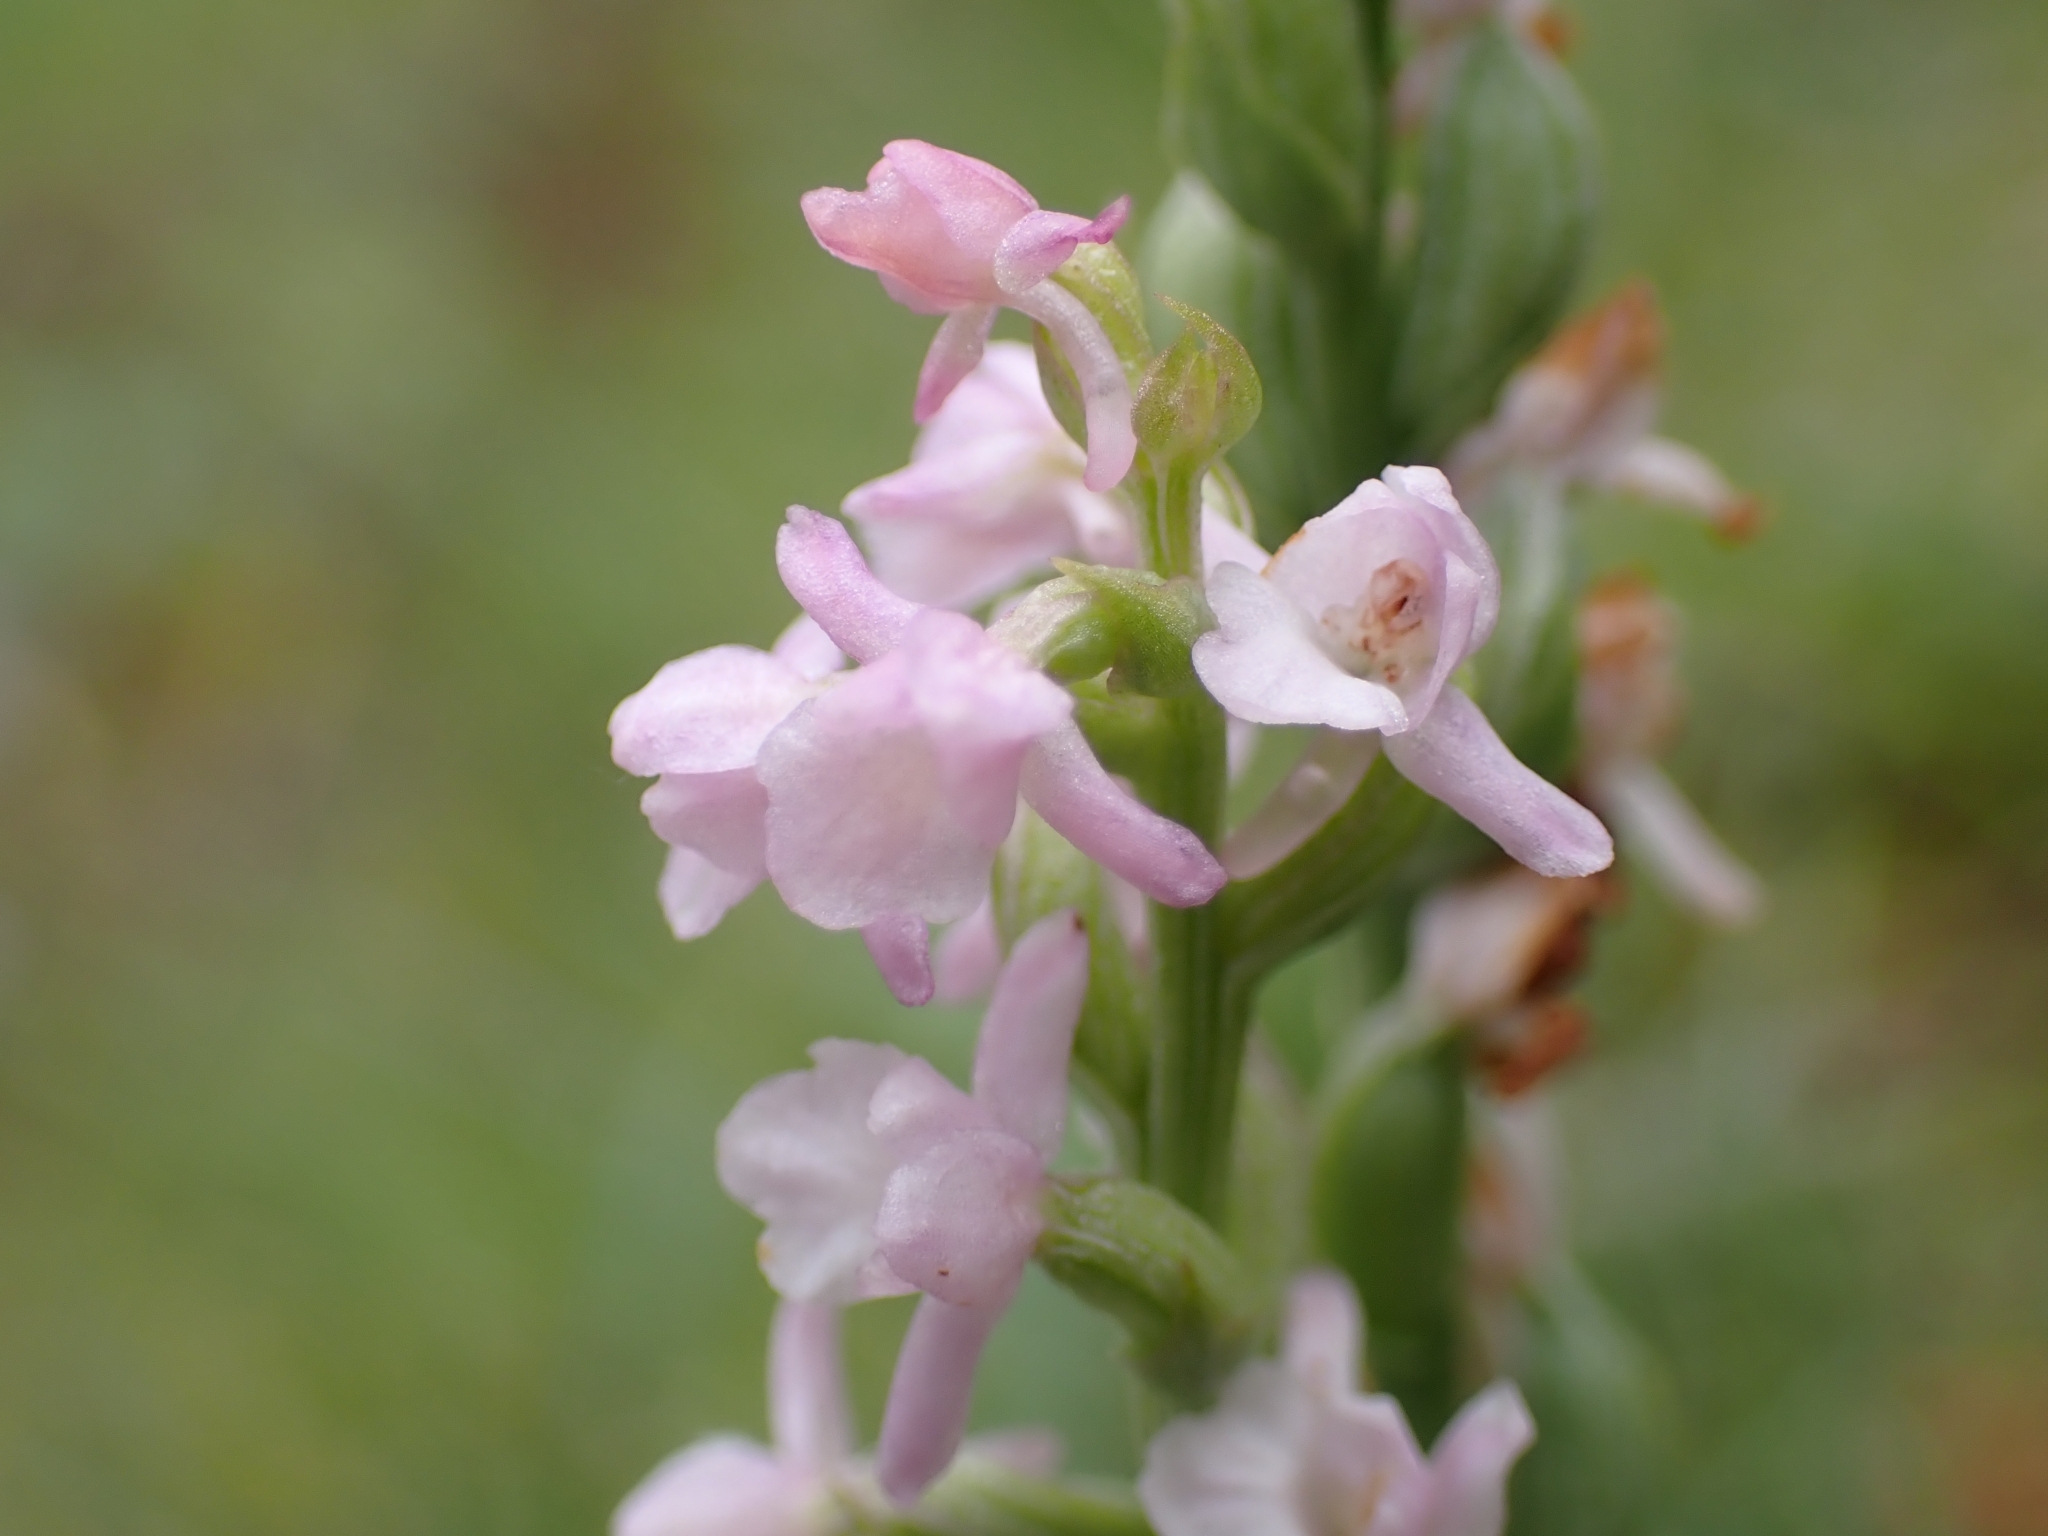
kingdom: Plantae
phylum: Tracheophyta
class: Liliopsida
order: Asparagales
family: Orchidaceae
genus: Gymnadenia
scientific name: Gymnadenia odoratissima
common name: Scented gymnadenia
